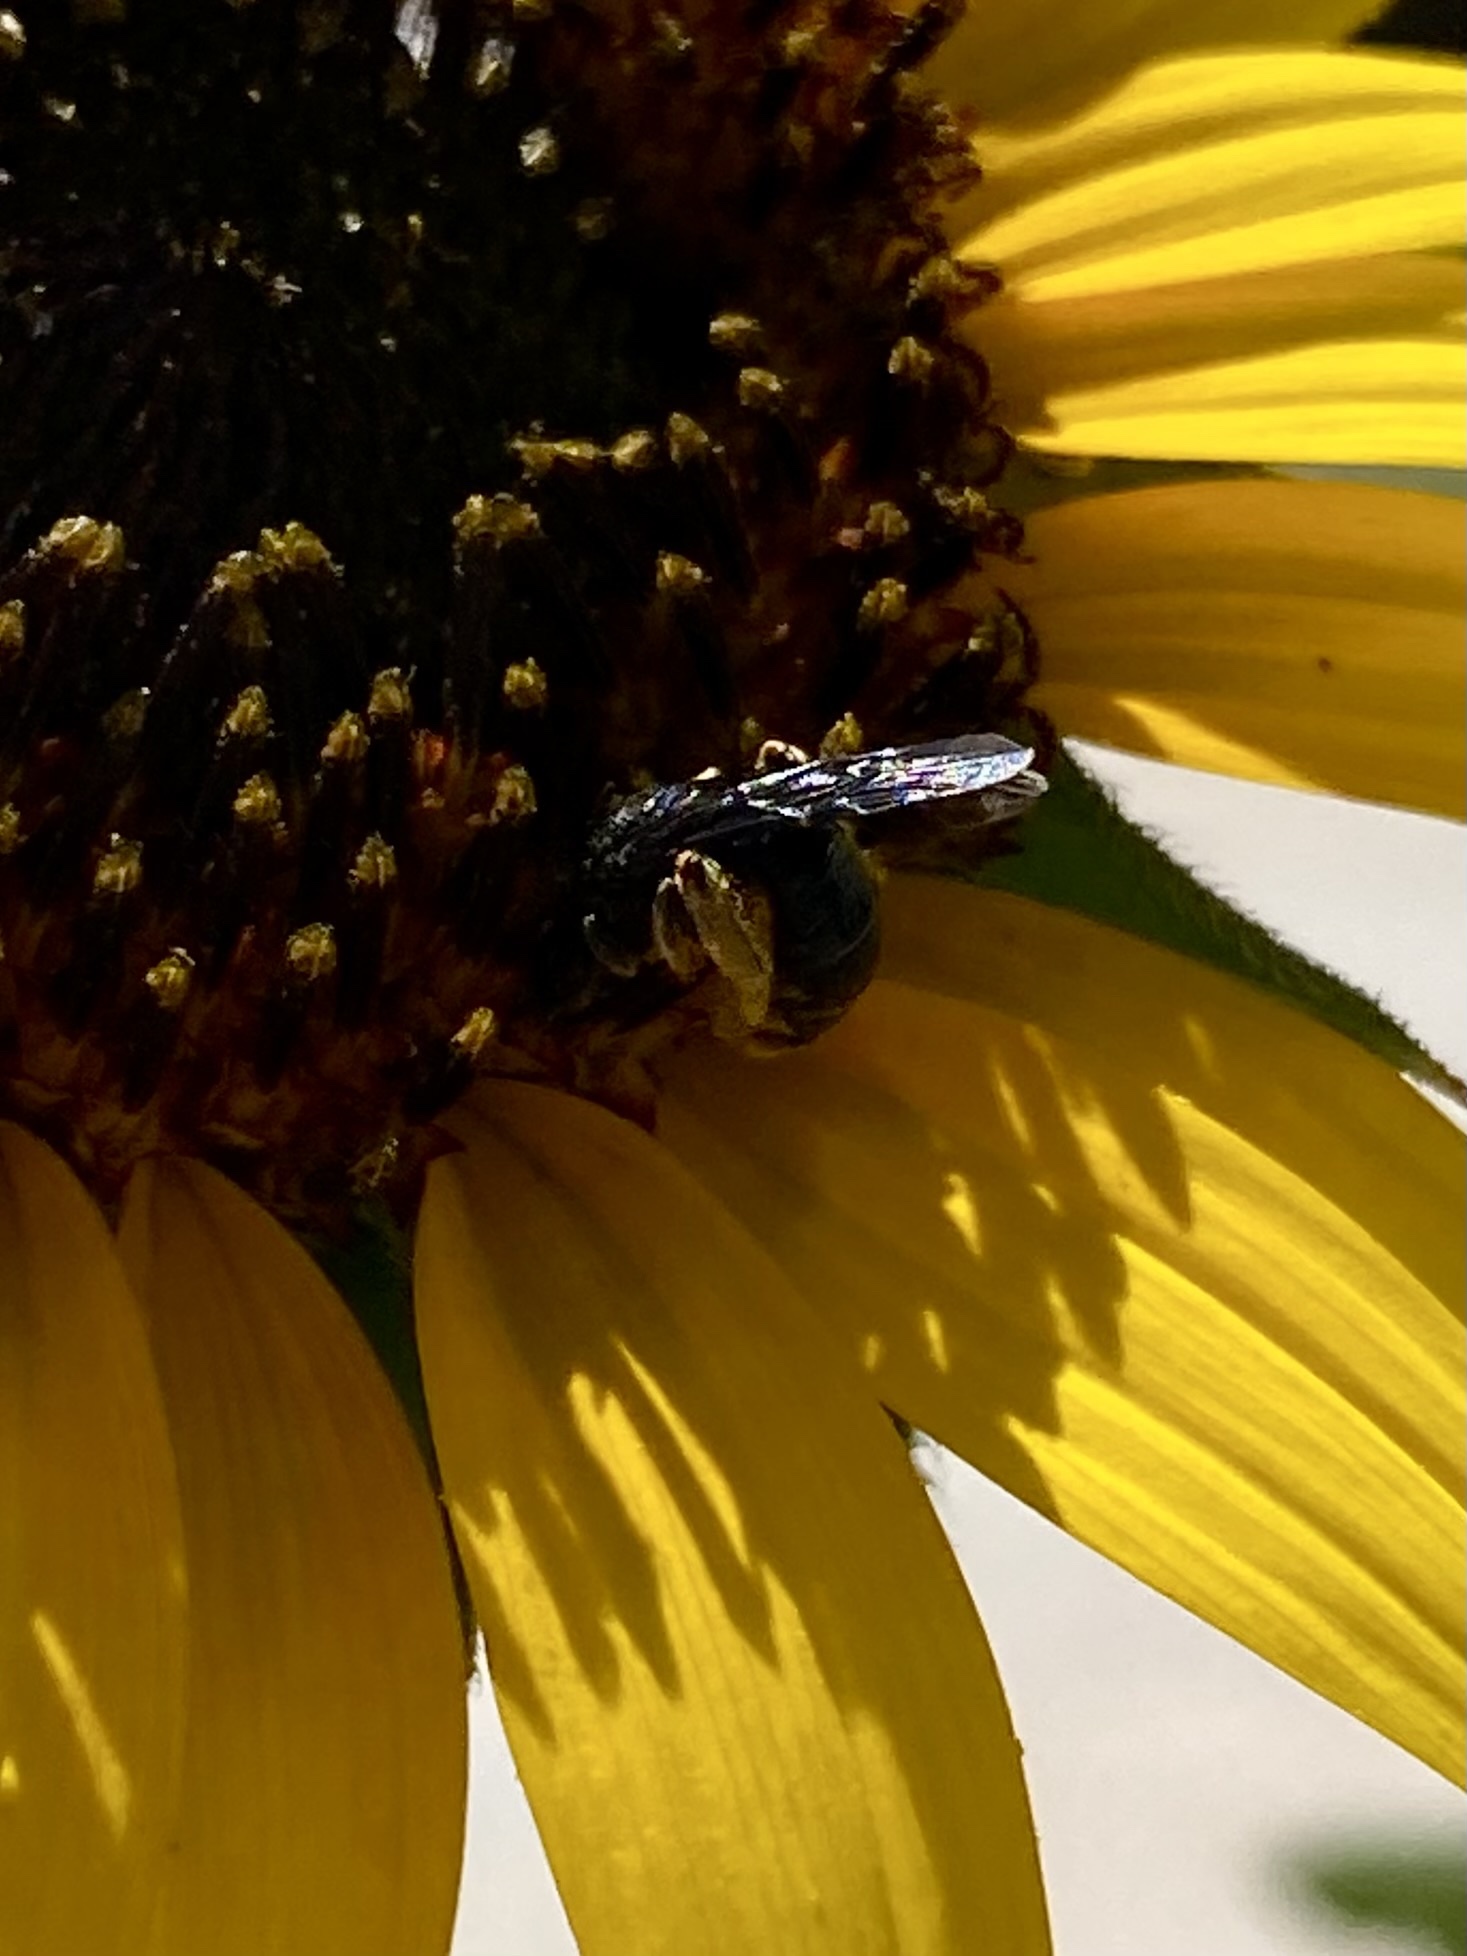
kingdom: Animalia
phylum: Arthropoda
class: Insecta
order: Hymenoptera
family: Andrenidae
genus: Protandrena
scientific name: Protandrena
